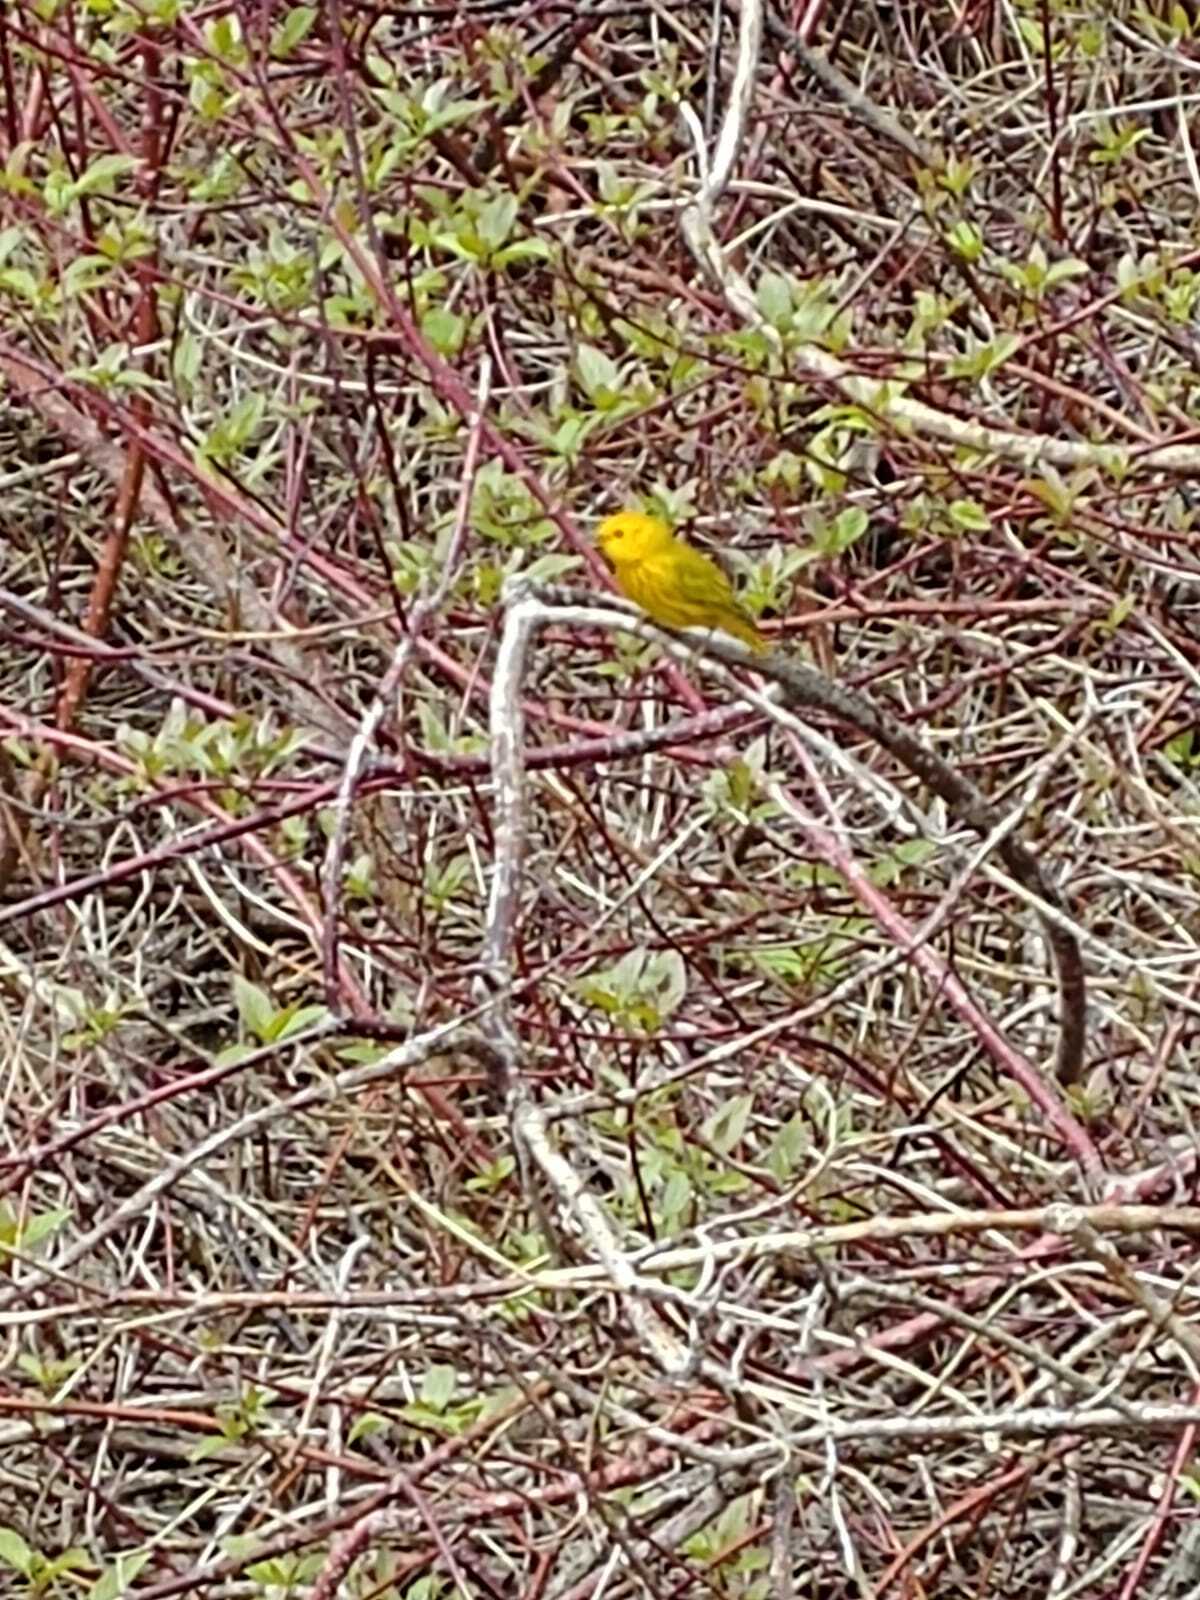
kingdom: Animalia
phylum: Chordata
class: Aves
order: Passeriformes
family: Parulidae
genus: Setophaga
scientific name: Setophaga petechia
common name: Yellow warbler
